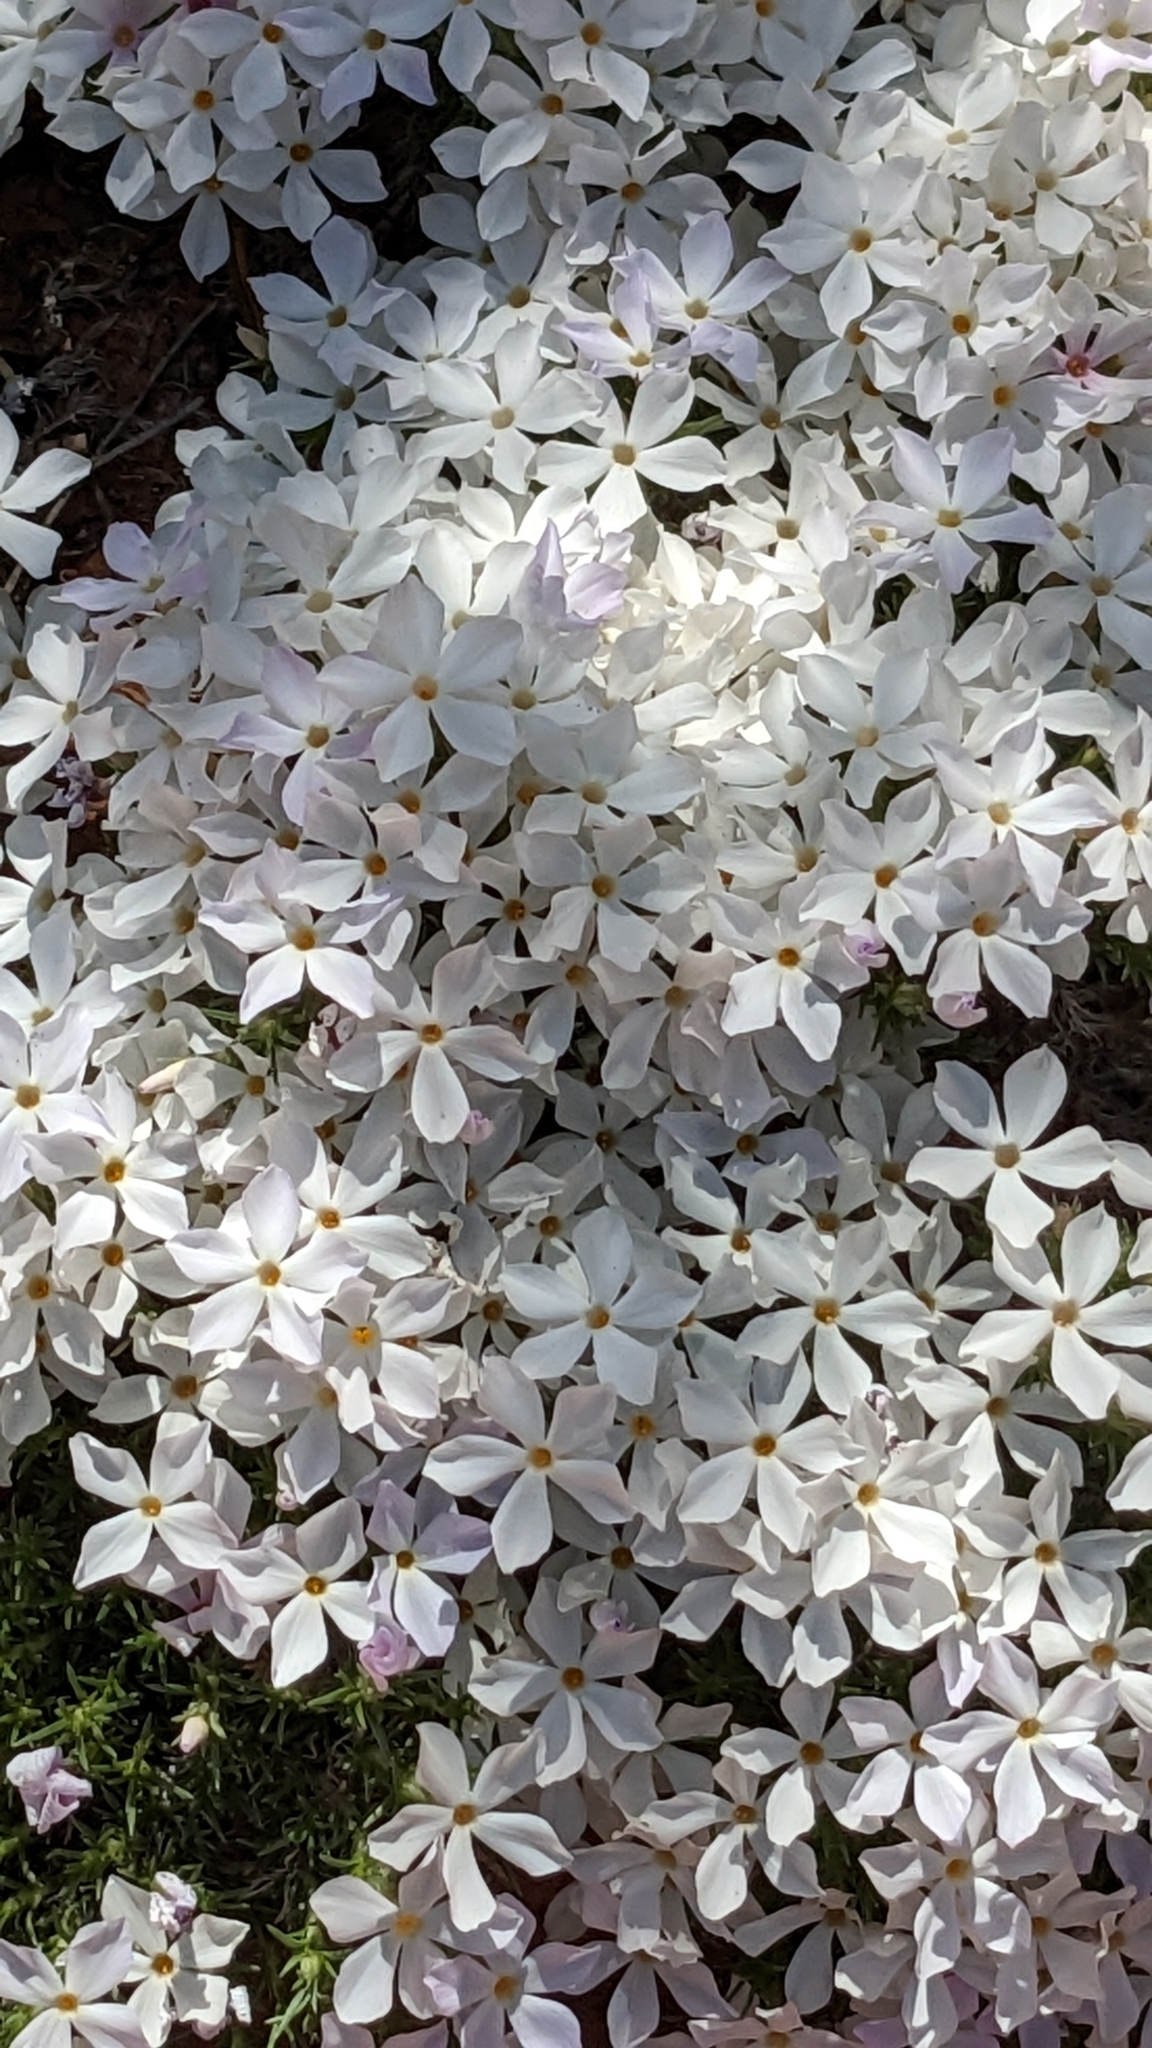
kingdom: Plantae
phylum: Tracheophyta
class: Magnoliopsida
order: Ericales
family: Polemoniaceae
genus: Phlox
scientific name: Phlox hoodii
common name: Moss phlox
